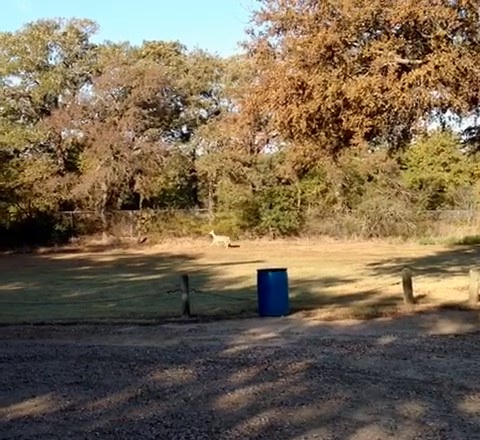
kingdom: Animalia
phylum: Chordata
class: Mammalia
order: Artiodactyla
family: Cervidae
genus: Odocoileus
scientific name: Odocoileus virginianus
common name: White-tailed deer
